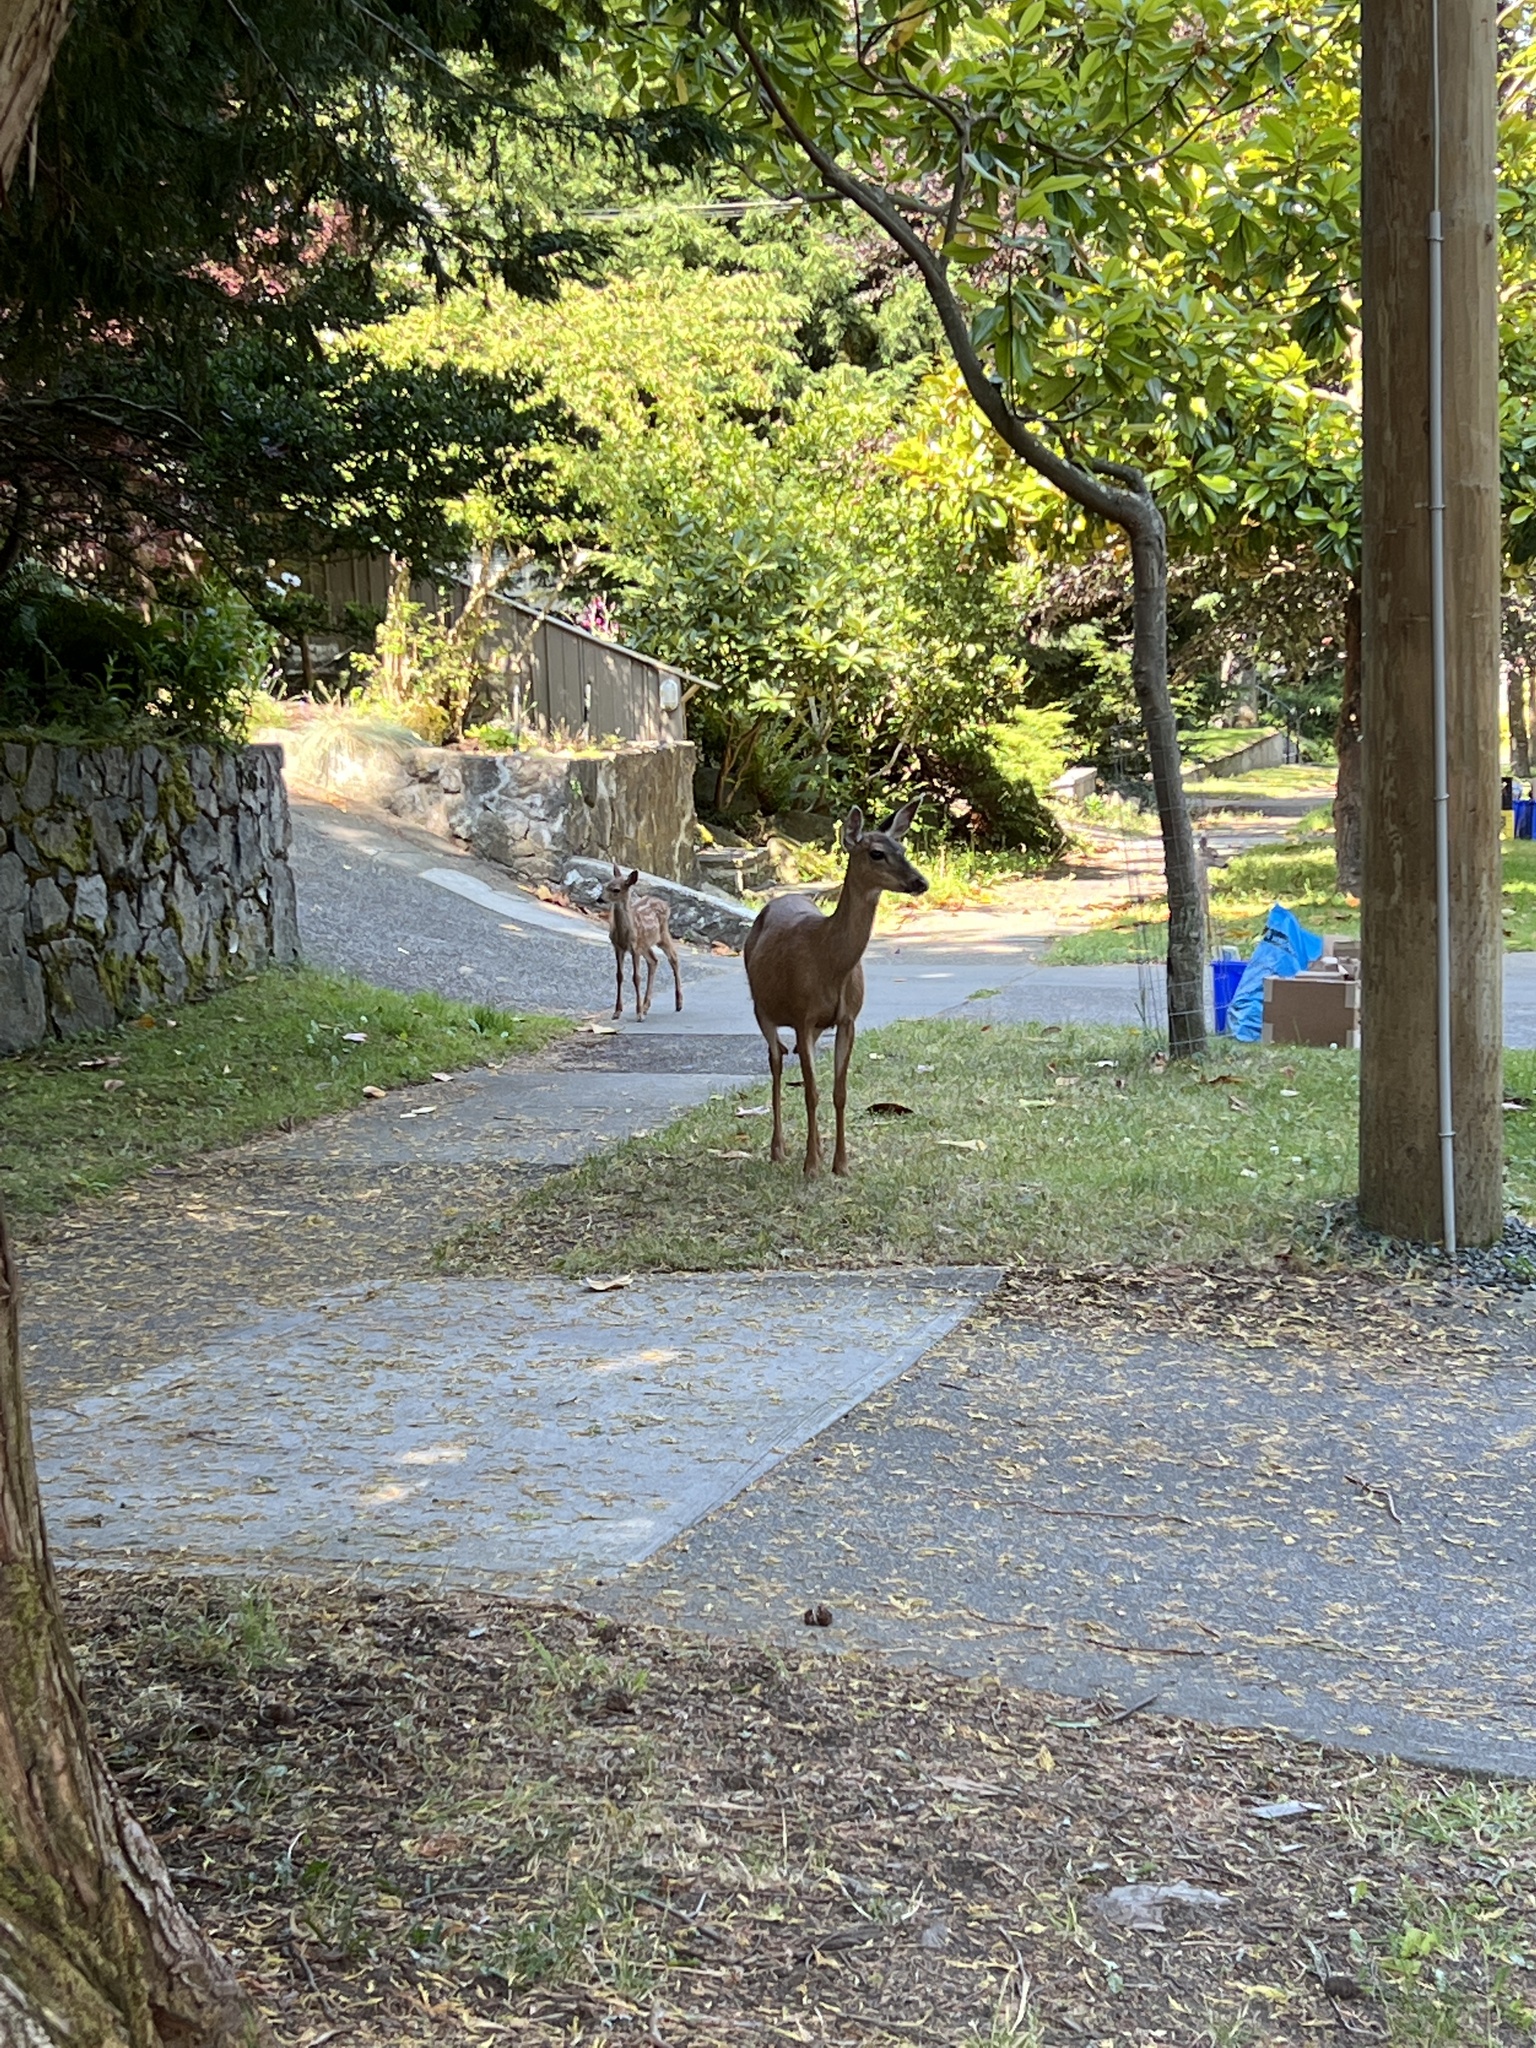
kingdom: Animalia
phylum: Chordata
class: Mammalia
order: Artiodactyla
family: Cervidae
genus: Odocoileus
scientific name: Odocoileus hemionus
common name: Mule deer
